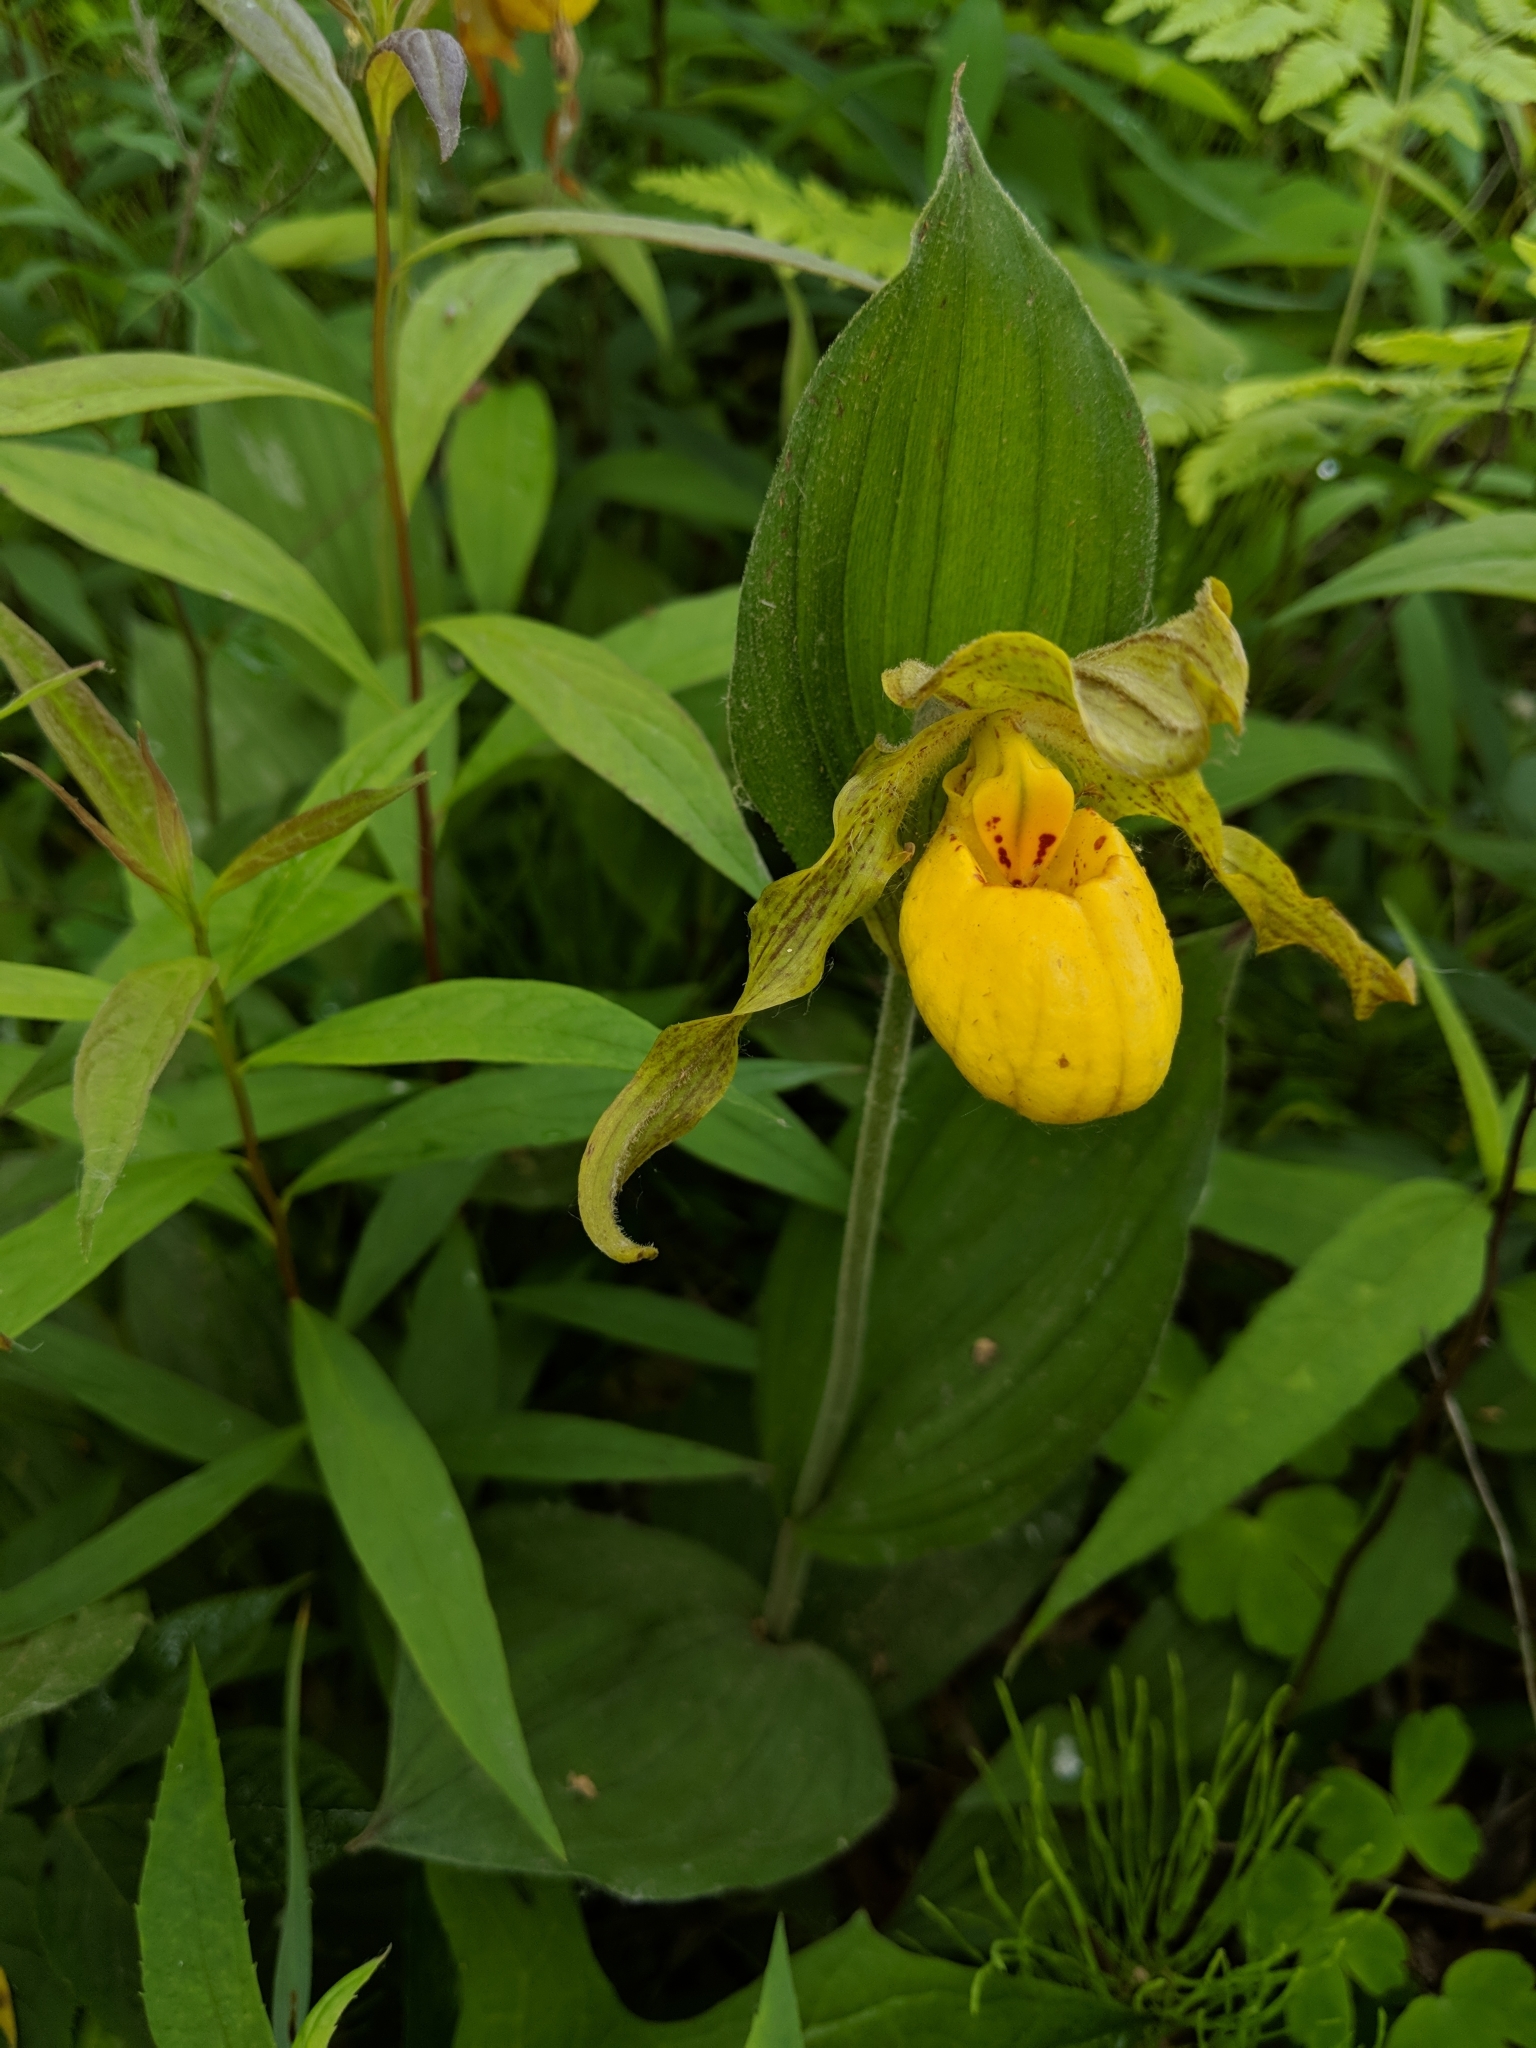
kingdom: Plantae
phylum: Tracheophyta
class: Liliopsida
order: Asparagales
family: Orchidaceae
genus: Cypripedium
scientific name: Cypripedium parviflorum
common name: American yellow lady's-slipper
